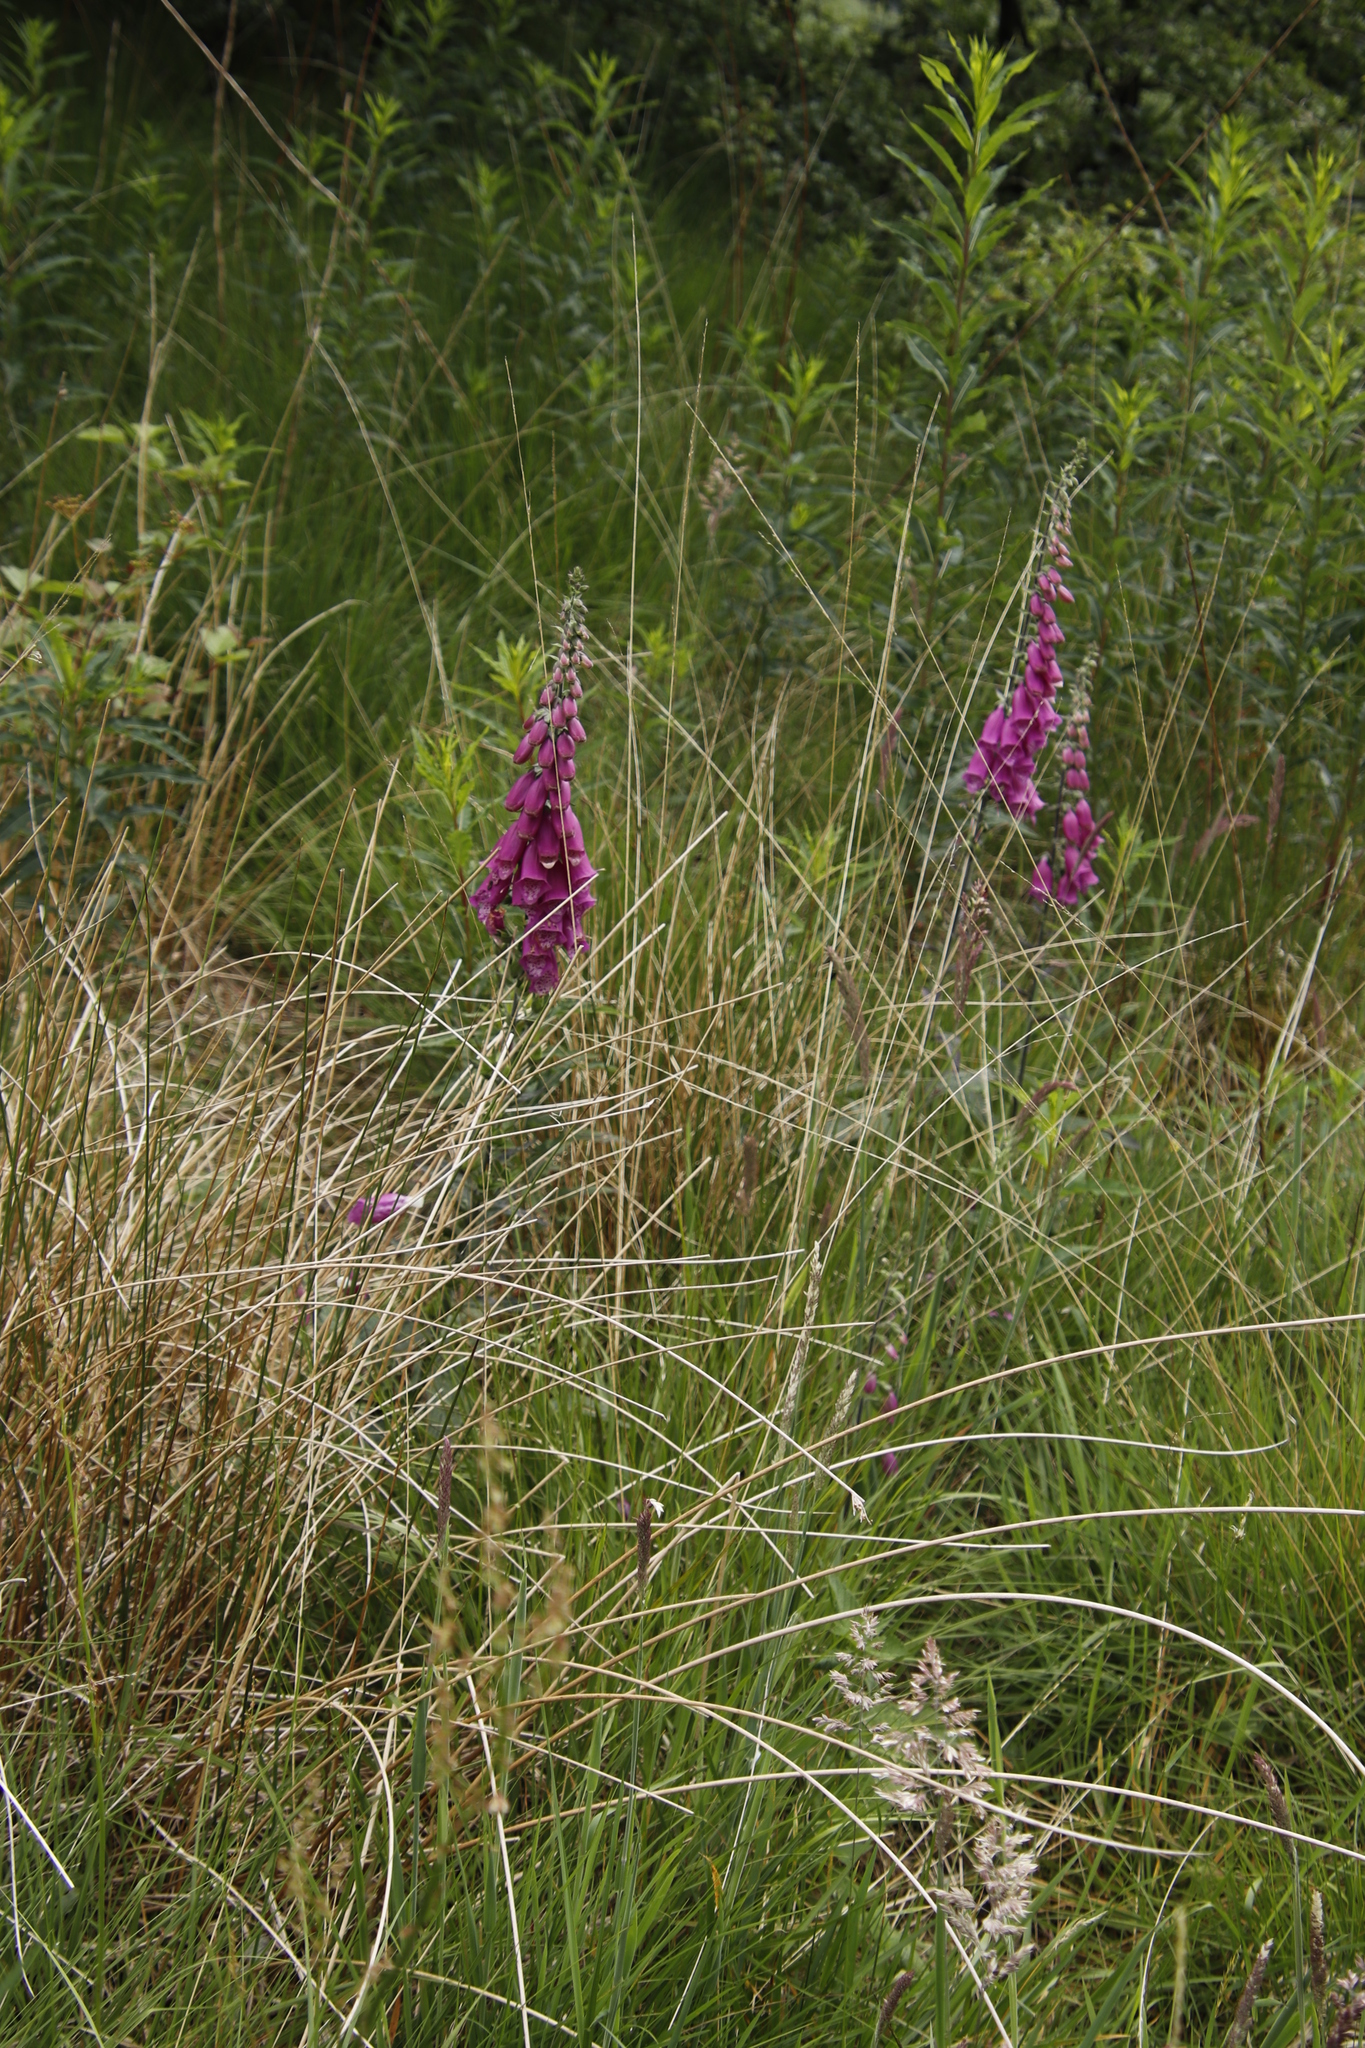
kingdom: Plantae
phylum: Tracheophyta
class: Magnoliopsida
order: Lamiales
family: Plantaginaceae
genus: Digitalis
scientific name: Digitalis purpurea
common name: Foxglove
